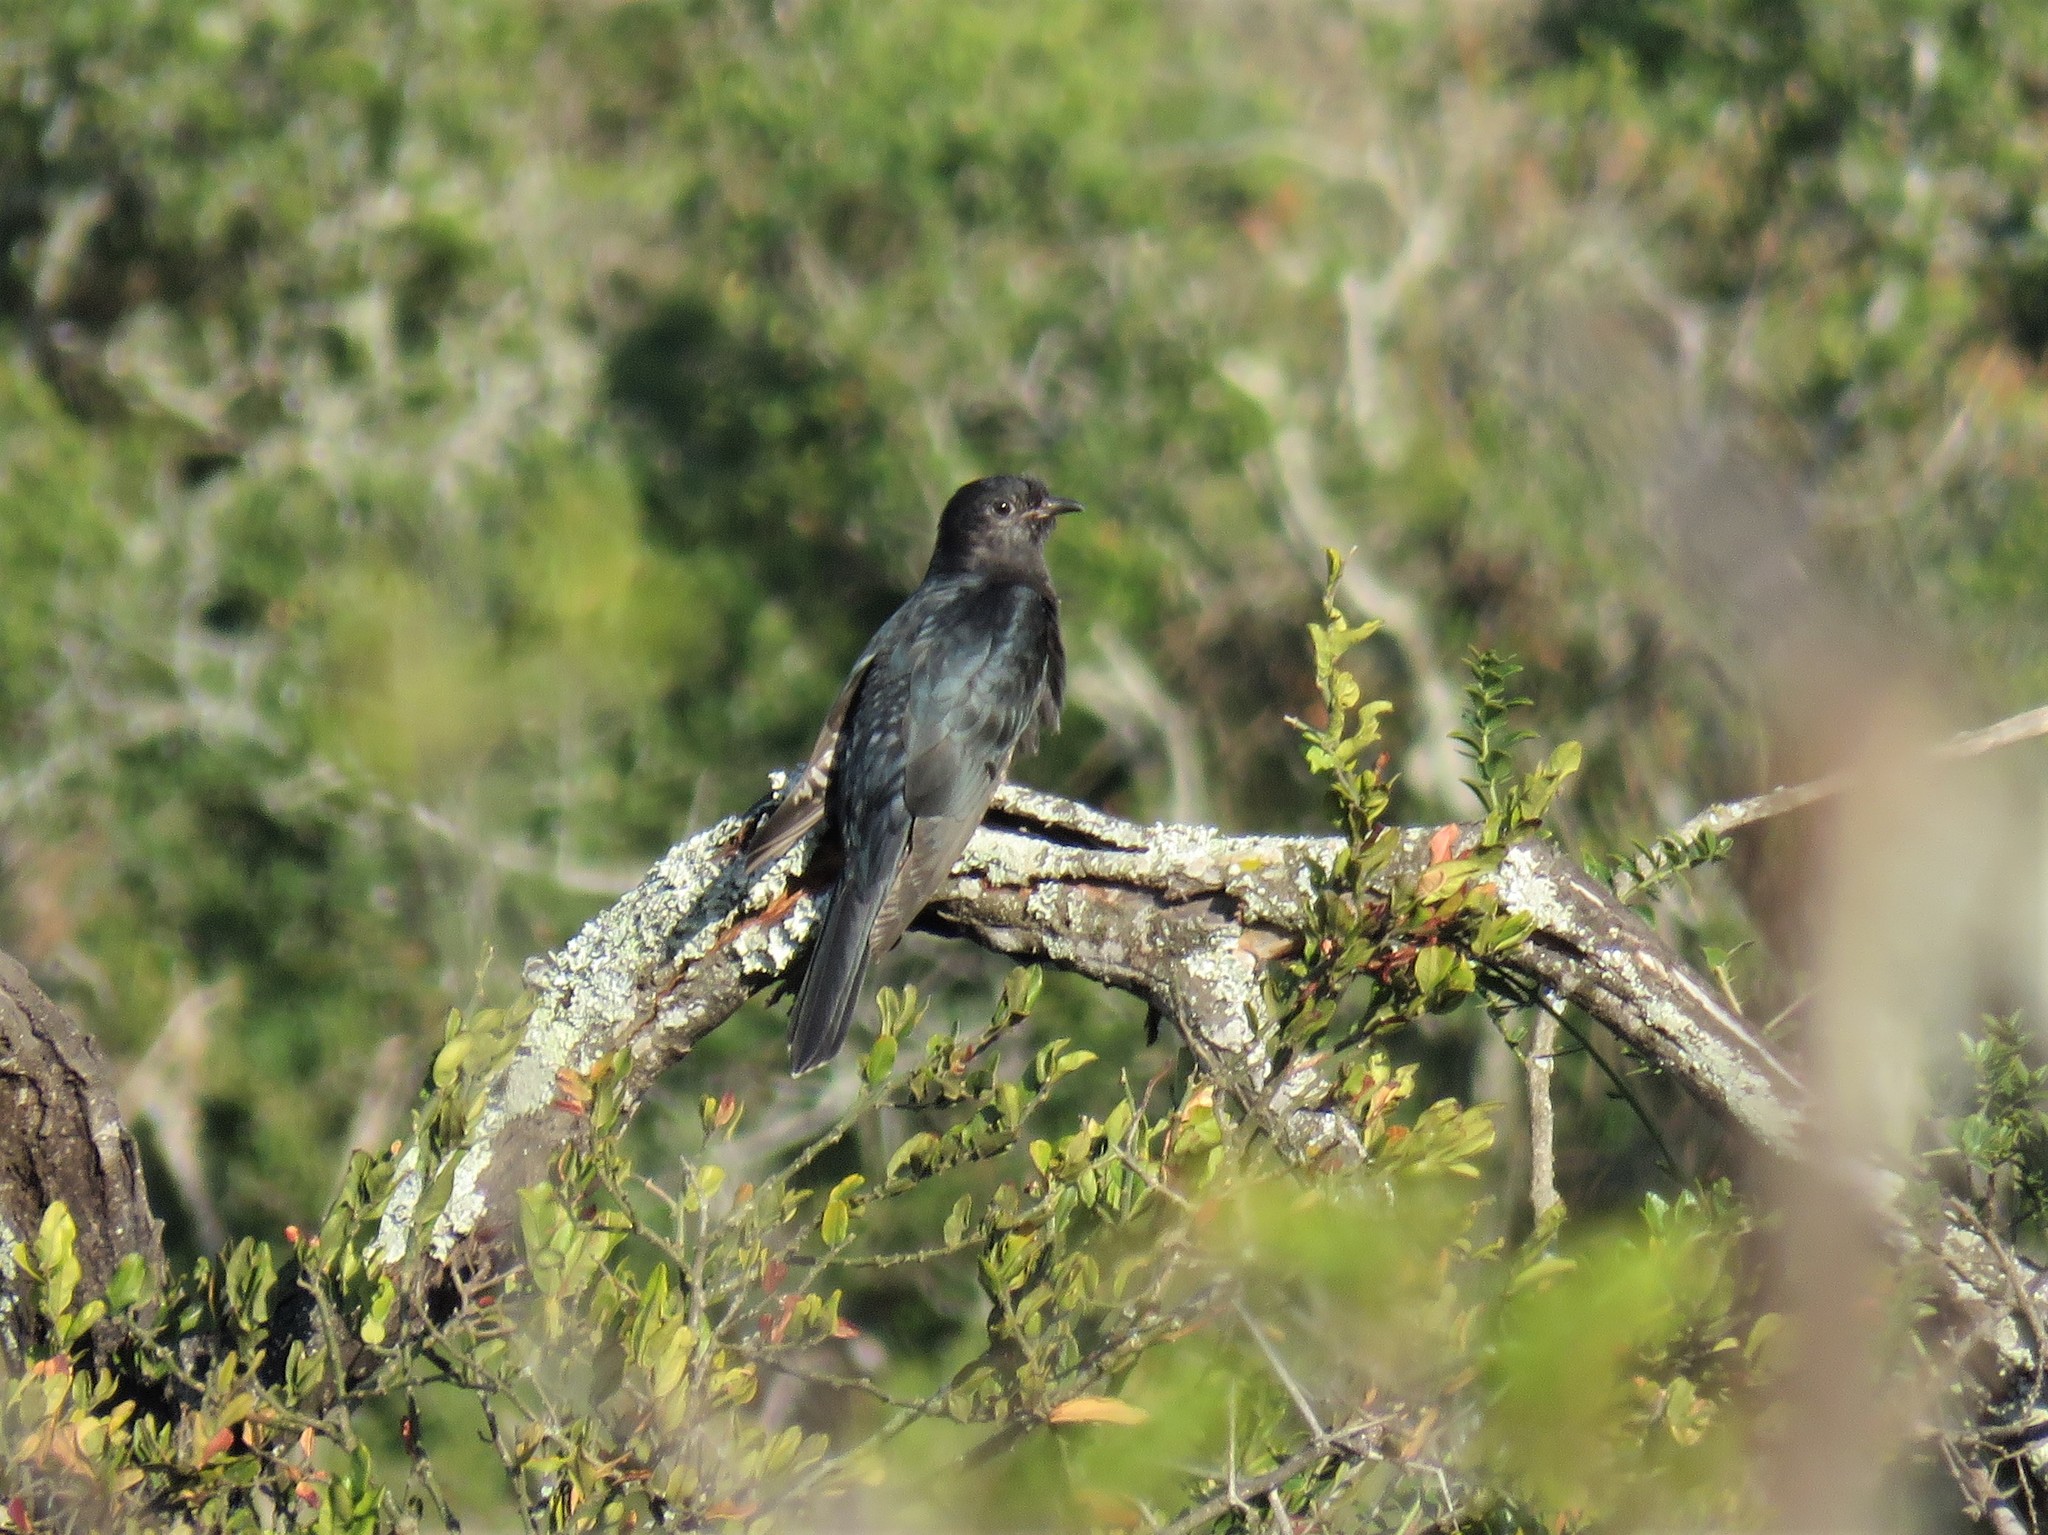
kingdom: Animalia
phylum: Chordata
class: Aves
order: Cuculiformes
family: Cuculidae
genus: Cuculus
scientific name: Cuculus clamosus
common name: Black cuckoo
